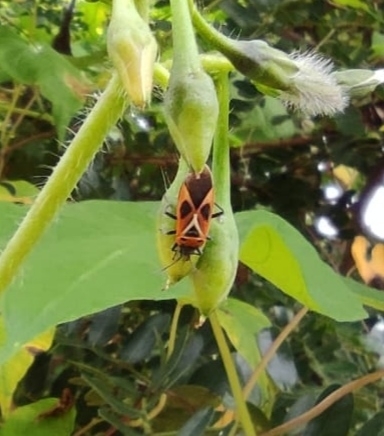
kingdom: Animalia
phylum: Arthropoda
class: Insecta
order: Hemiptera
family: Lygaeidae
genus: Anochrostomus
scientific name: Anochrostomus formosoides
